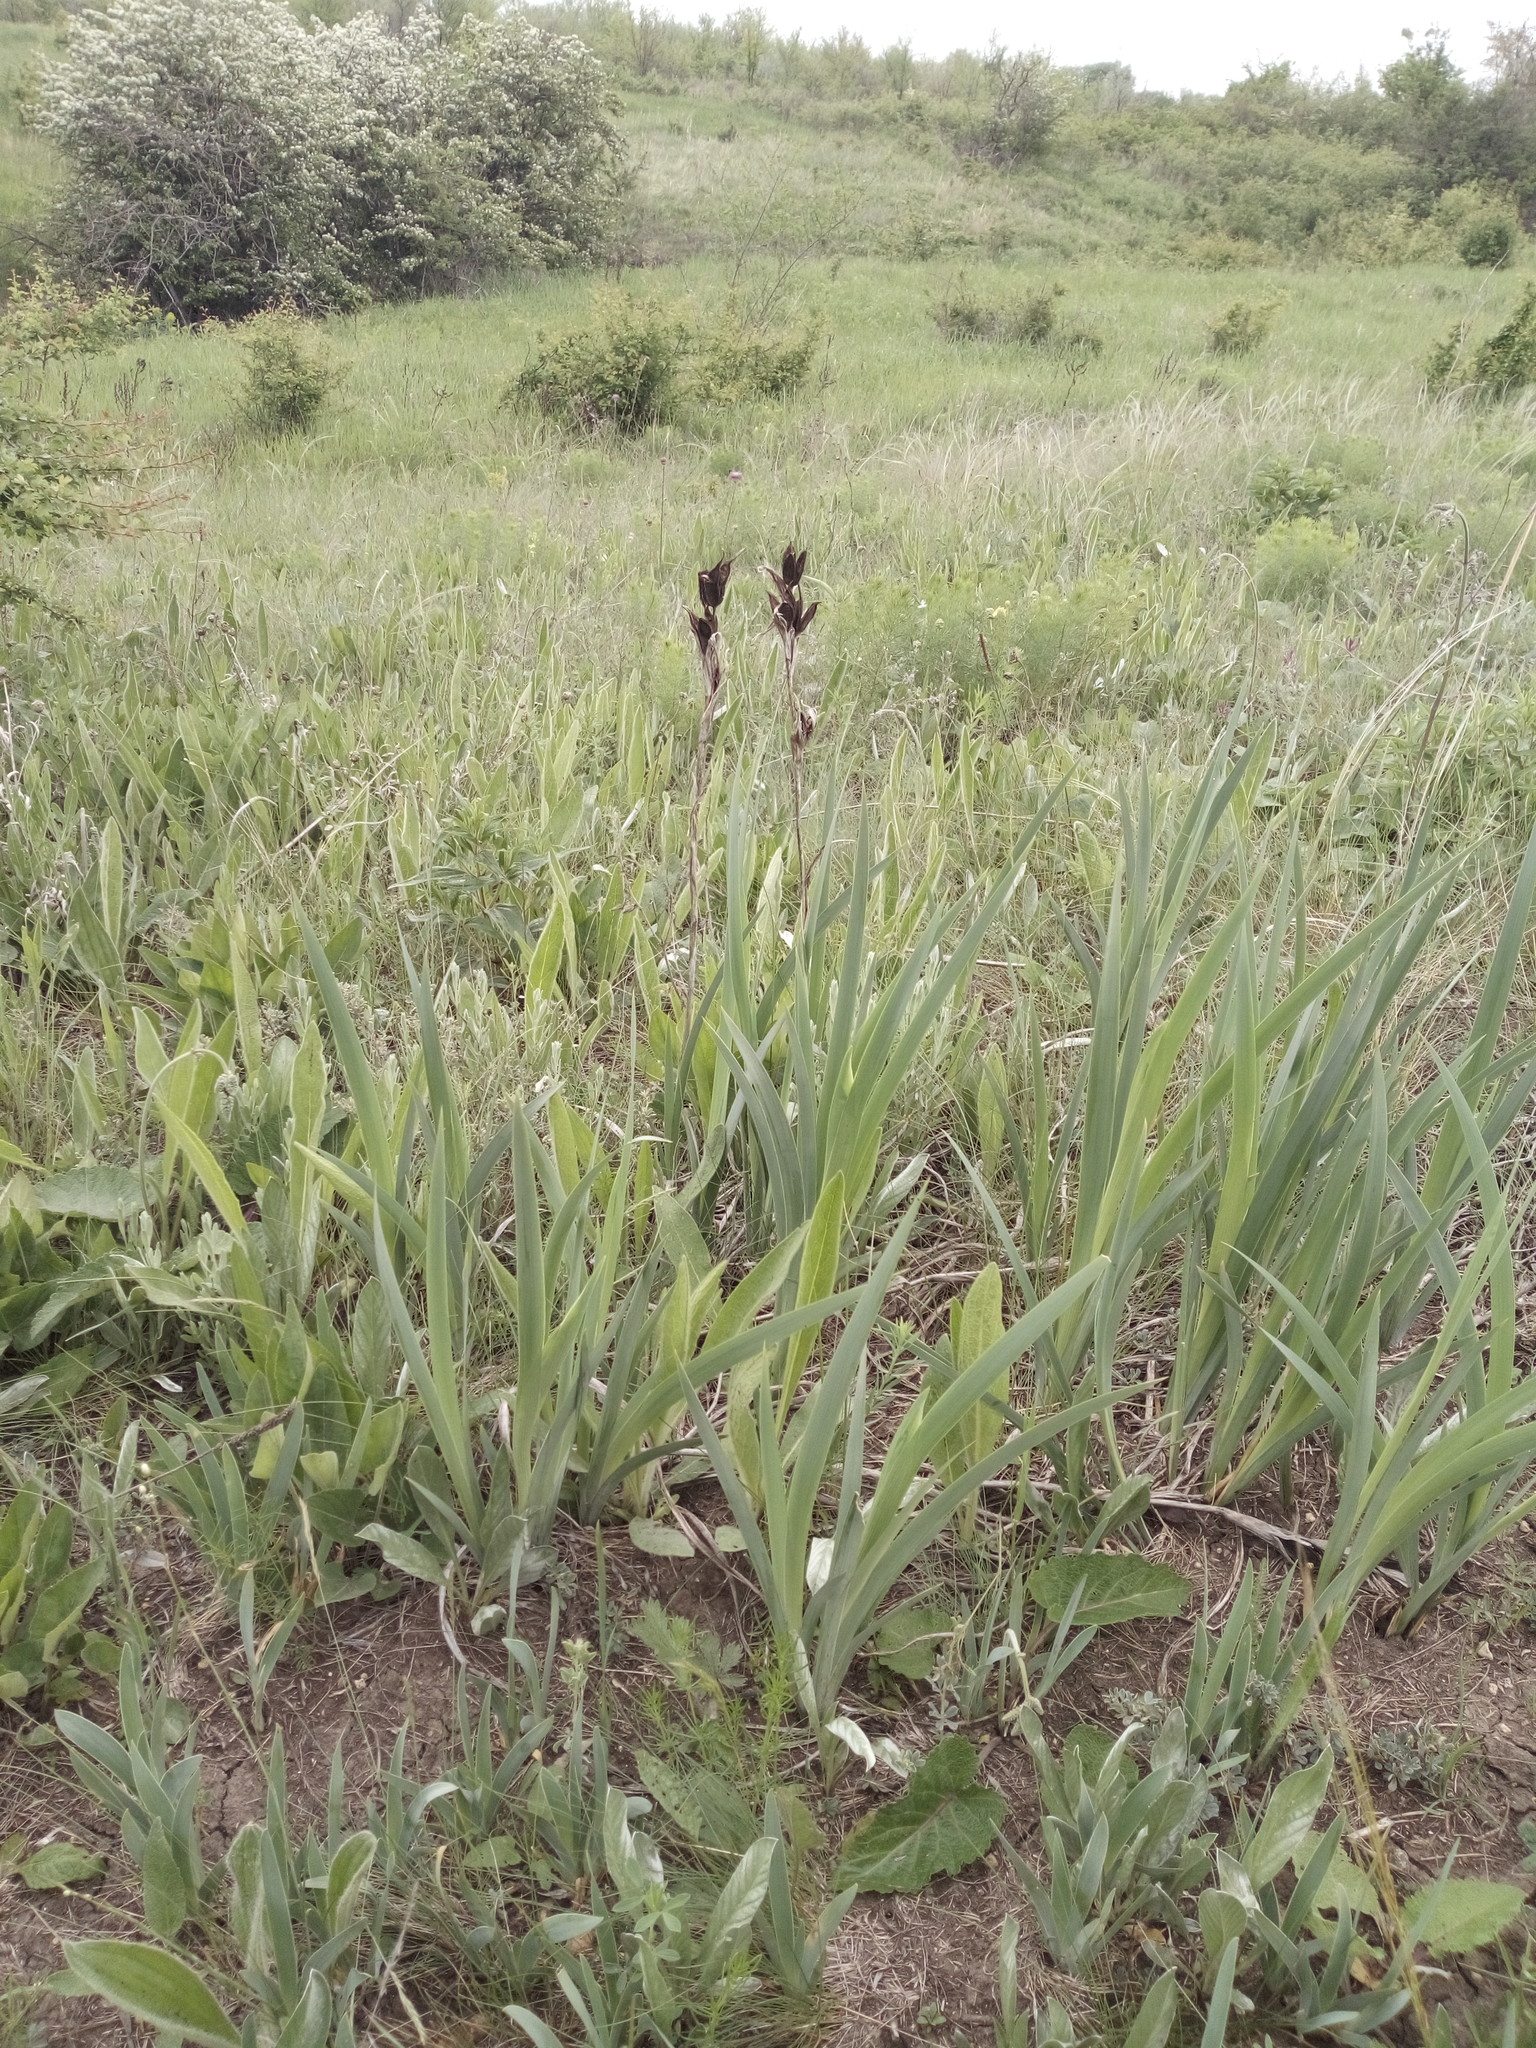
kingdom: Plantae
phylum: Tracheophyta
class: Liliopsida
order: Asparagales
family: Iridaceae
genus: Iris
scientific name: Iris halophila
